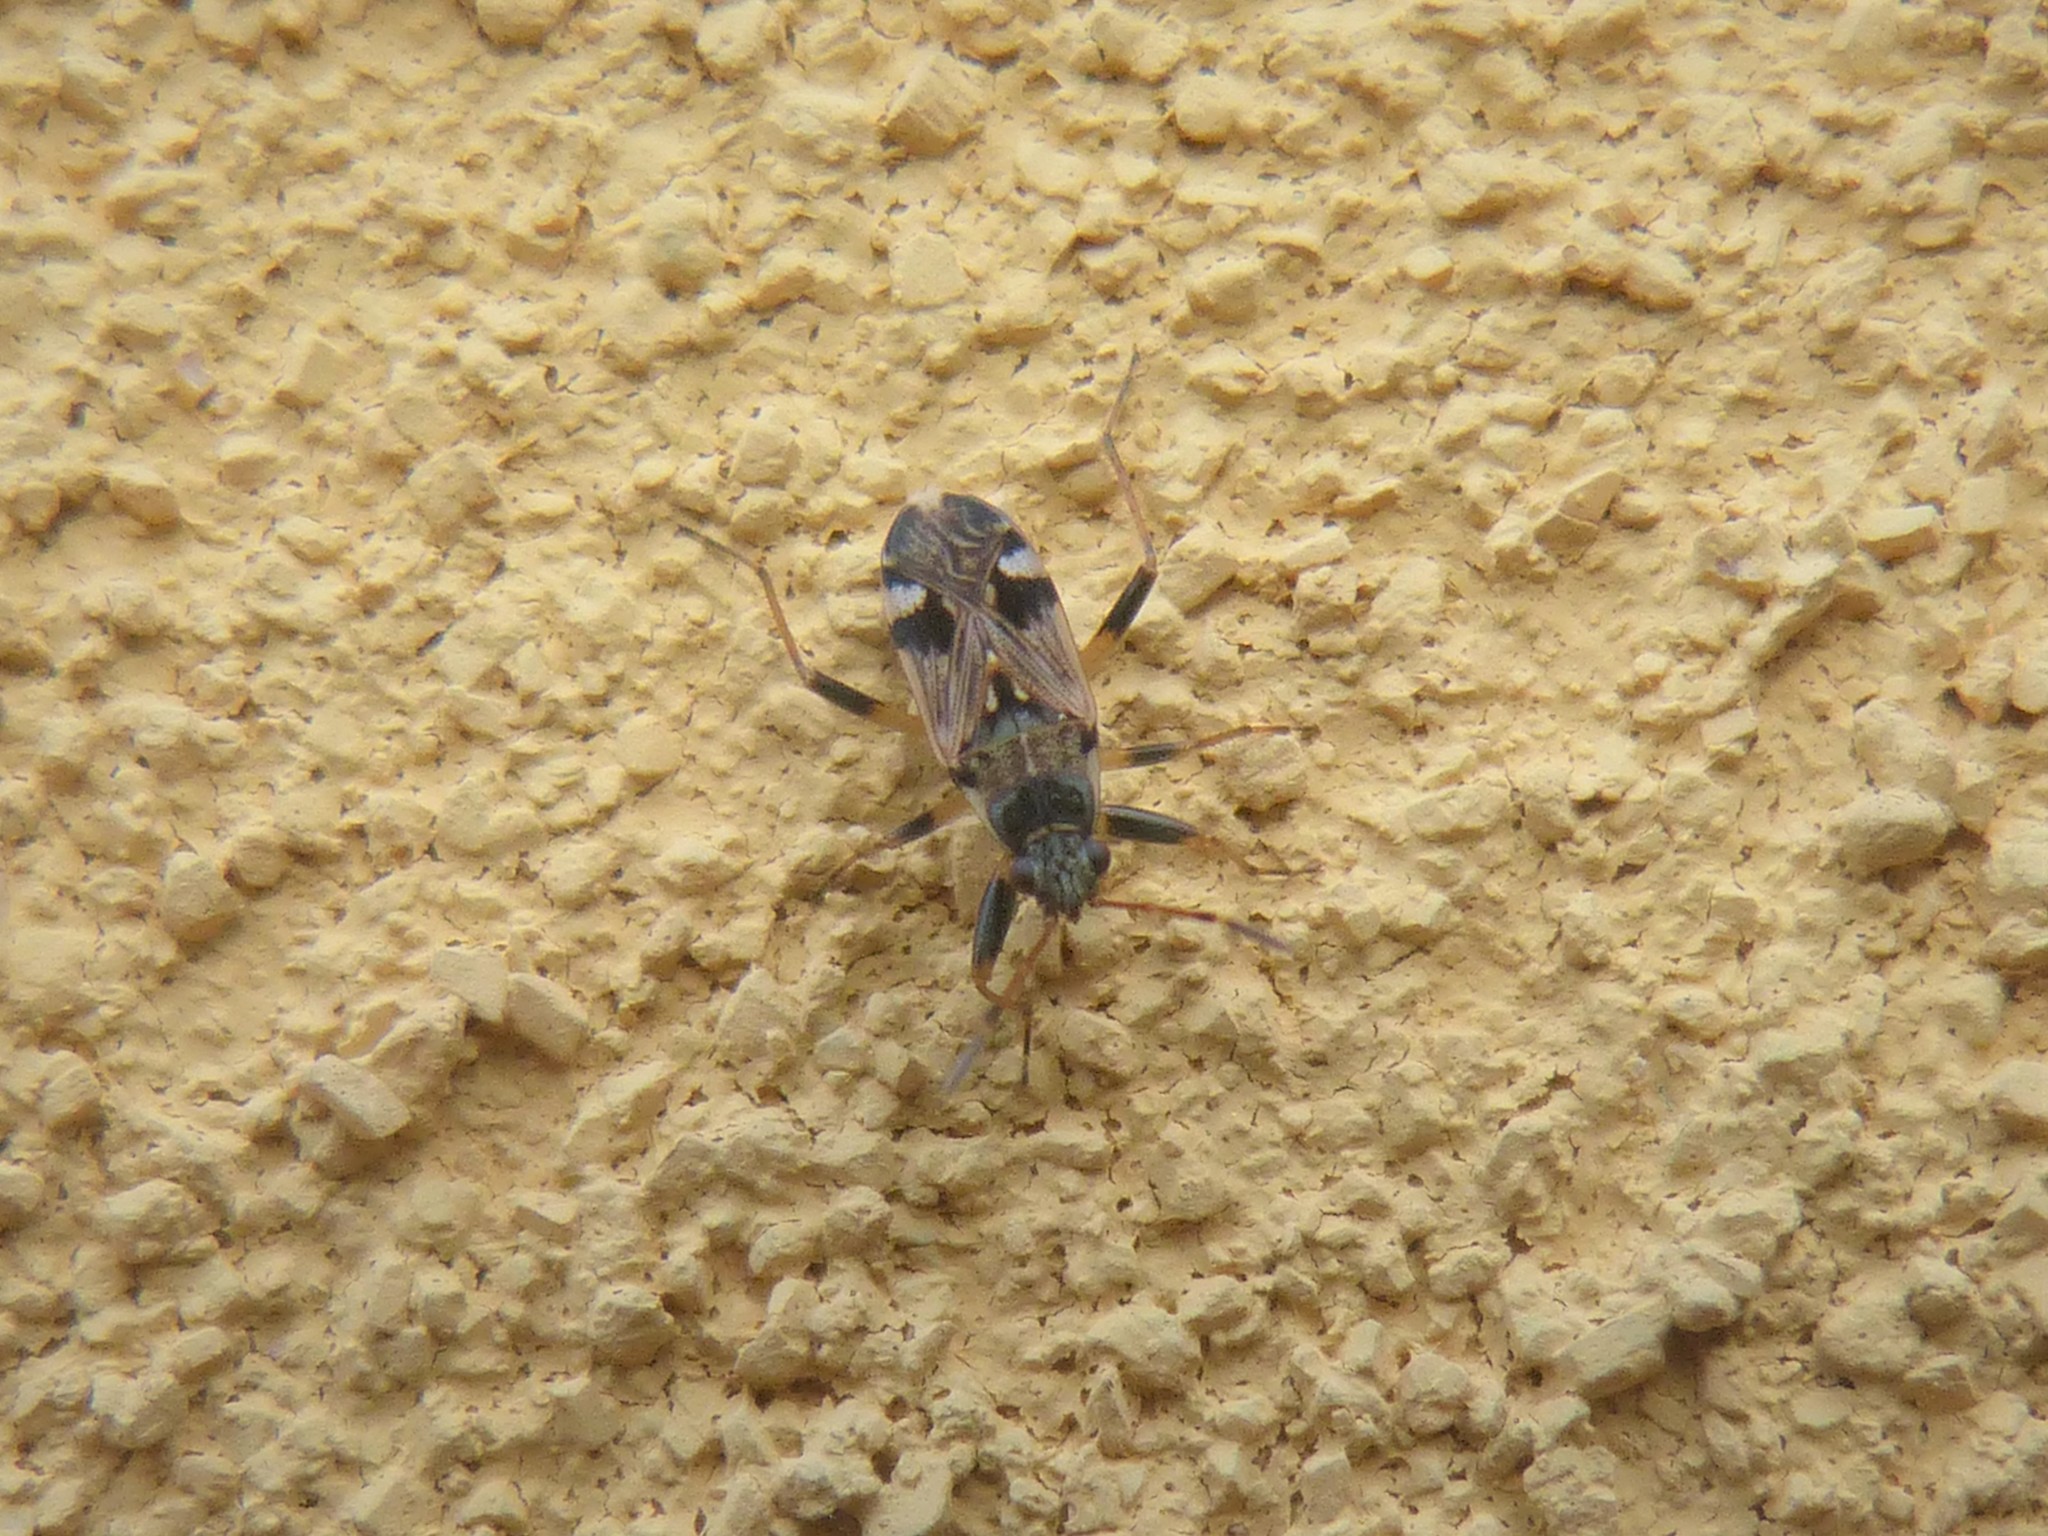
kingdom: Animalia
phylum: Arthropoda
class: Insecta
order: Hemiptera
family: Rhyparochromidae
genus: Beosus
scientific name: Beosus maritimus
